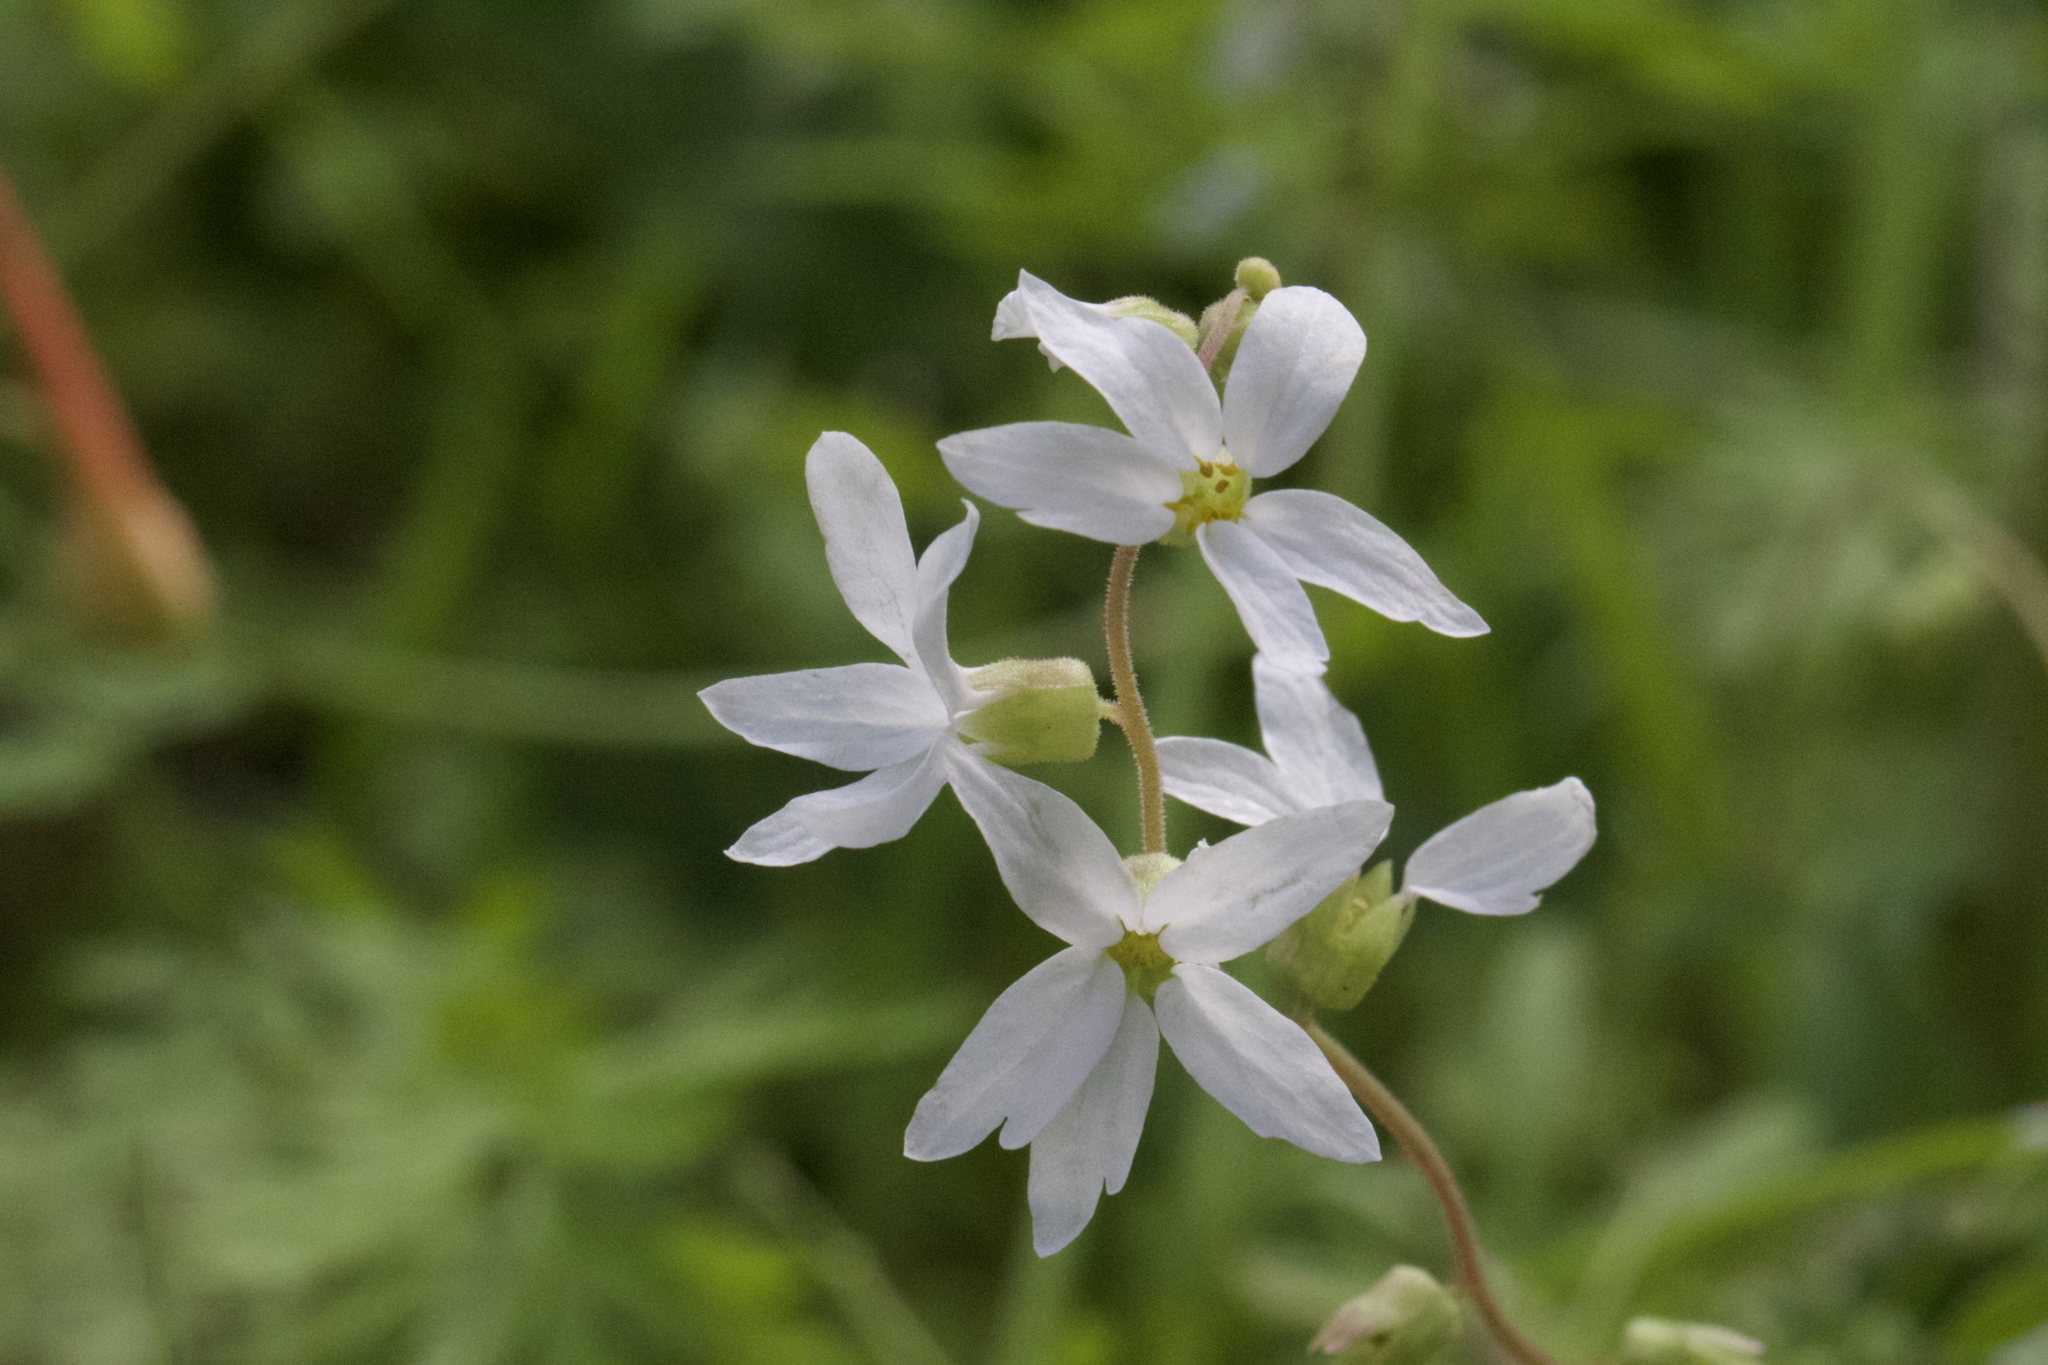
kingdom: Plantae
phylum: Tracheophyta
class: Magnoliopsida
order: Saxifragales
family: Saxifragaceae
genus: Lithophragma
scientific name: Lithophragma heterophyllum
